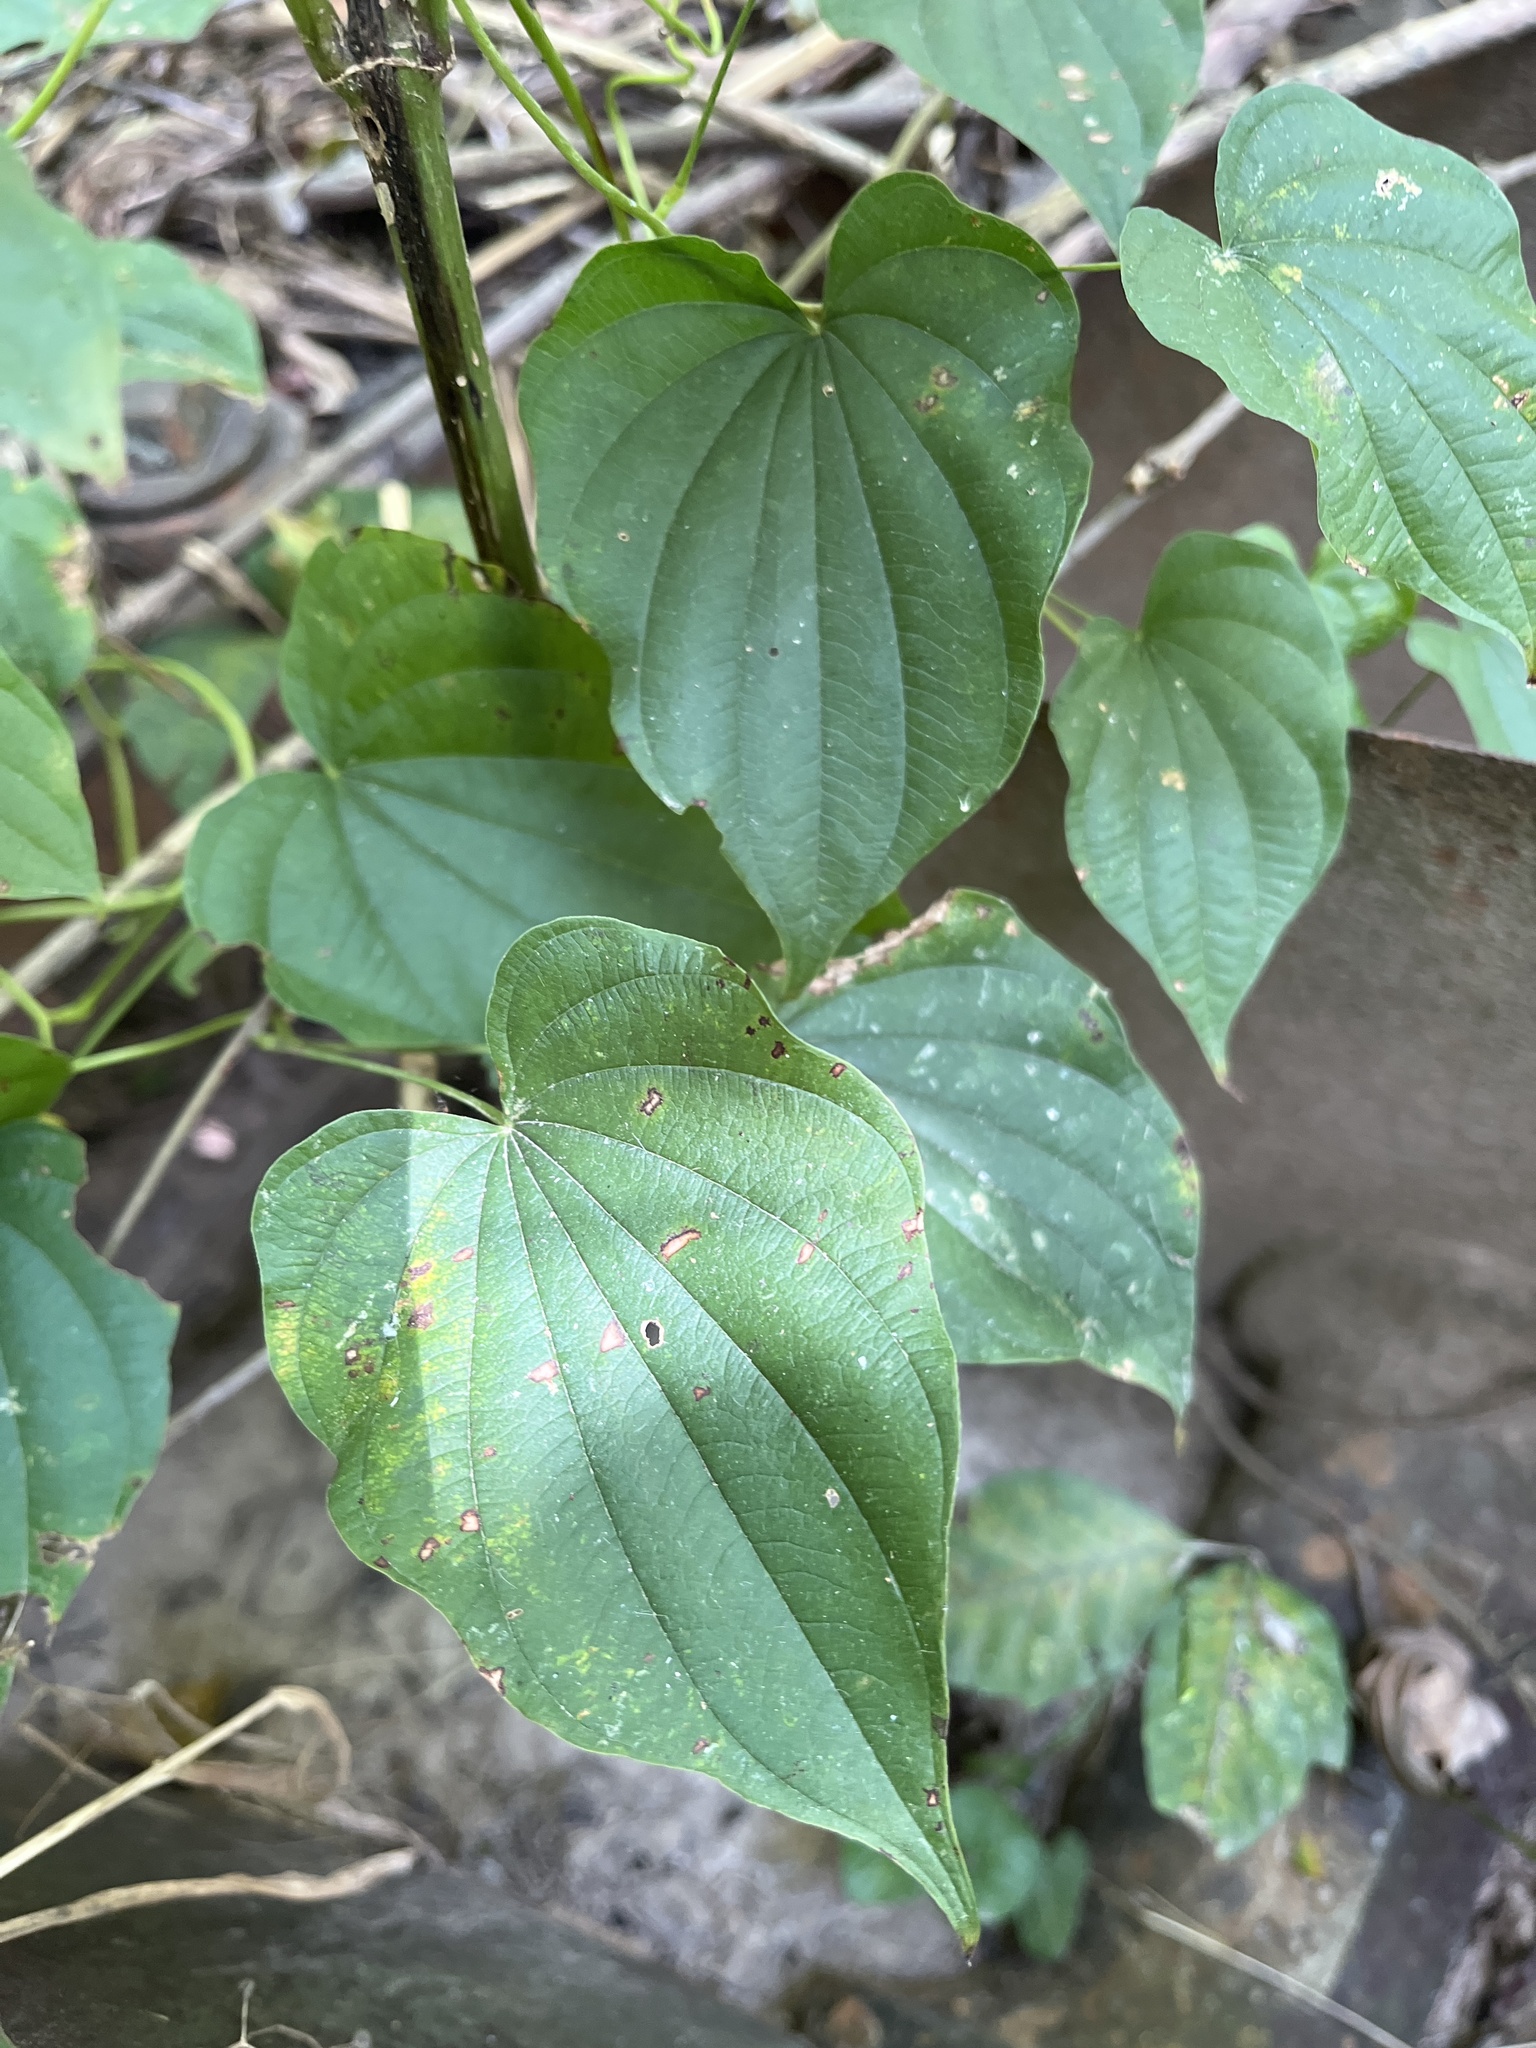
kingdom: Plantae
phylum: Tracheophyta
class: Liliopsida
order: Dioscoreales
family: Dioscoreaceae
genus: Dioscorea
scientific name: Dioscorea villosa
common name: Wild yam
